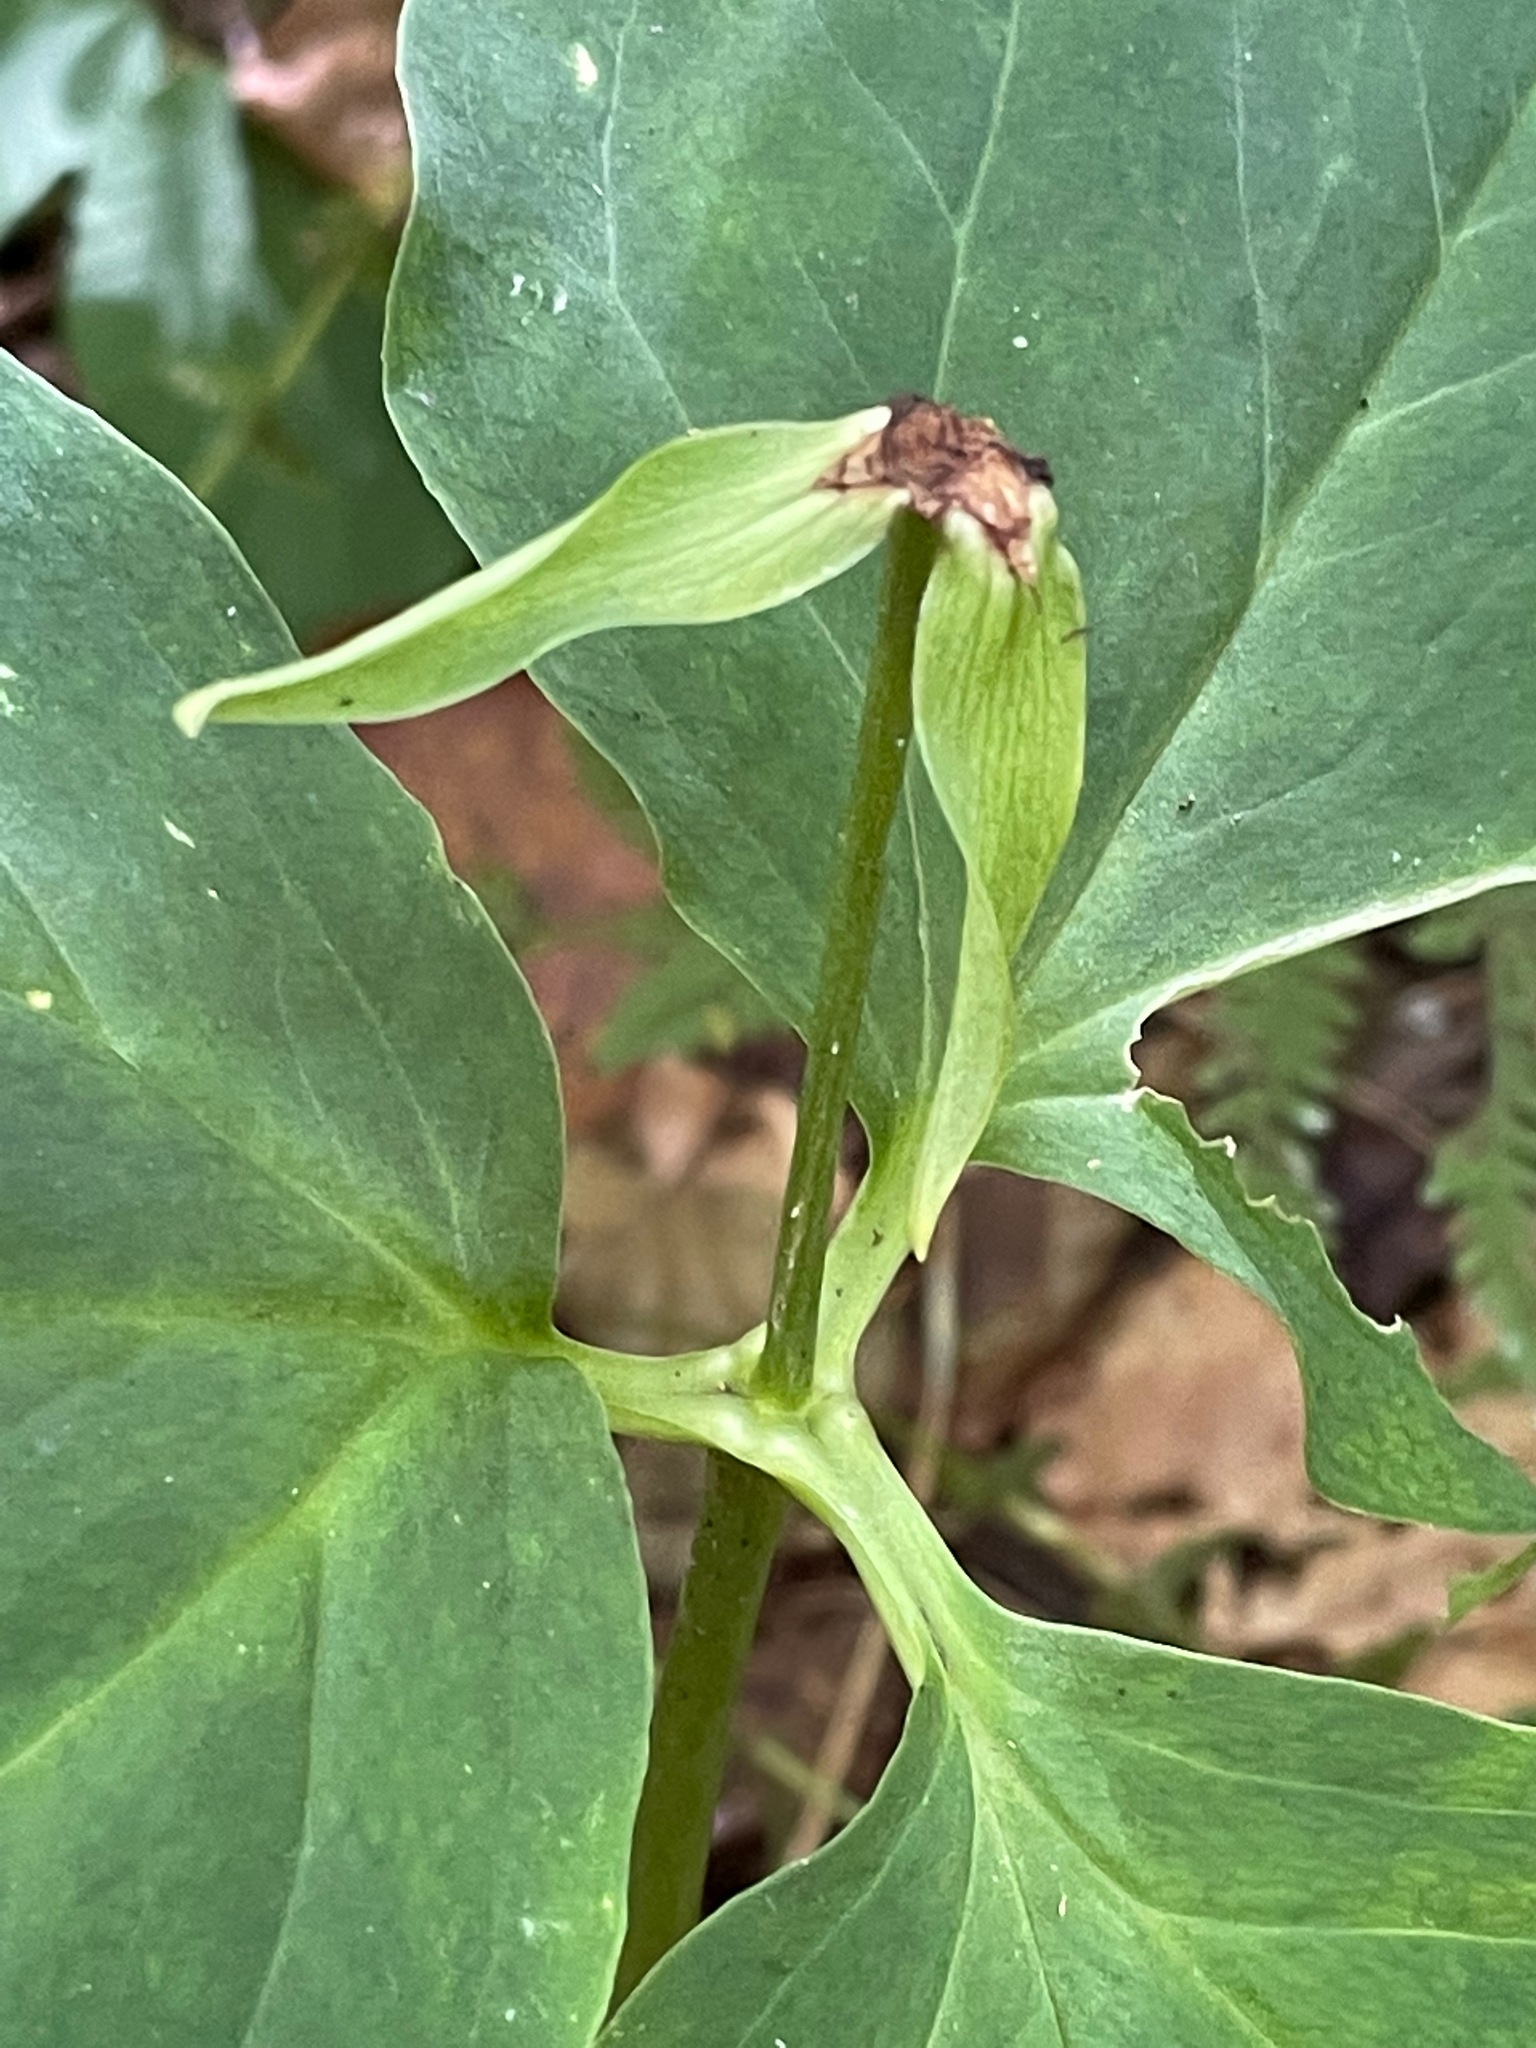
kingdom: Plantae
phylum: Tracheophyta
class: Liliopsida
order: Liliales
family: Melanthiaceae
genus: Trillium
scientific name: Trillium undulatum
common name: Paint trillium
